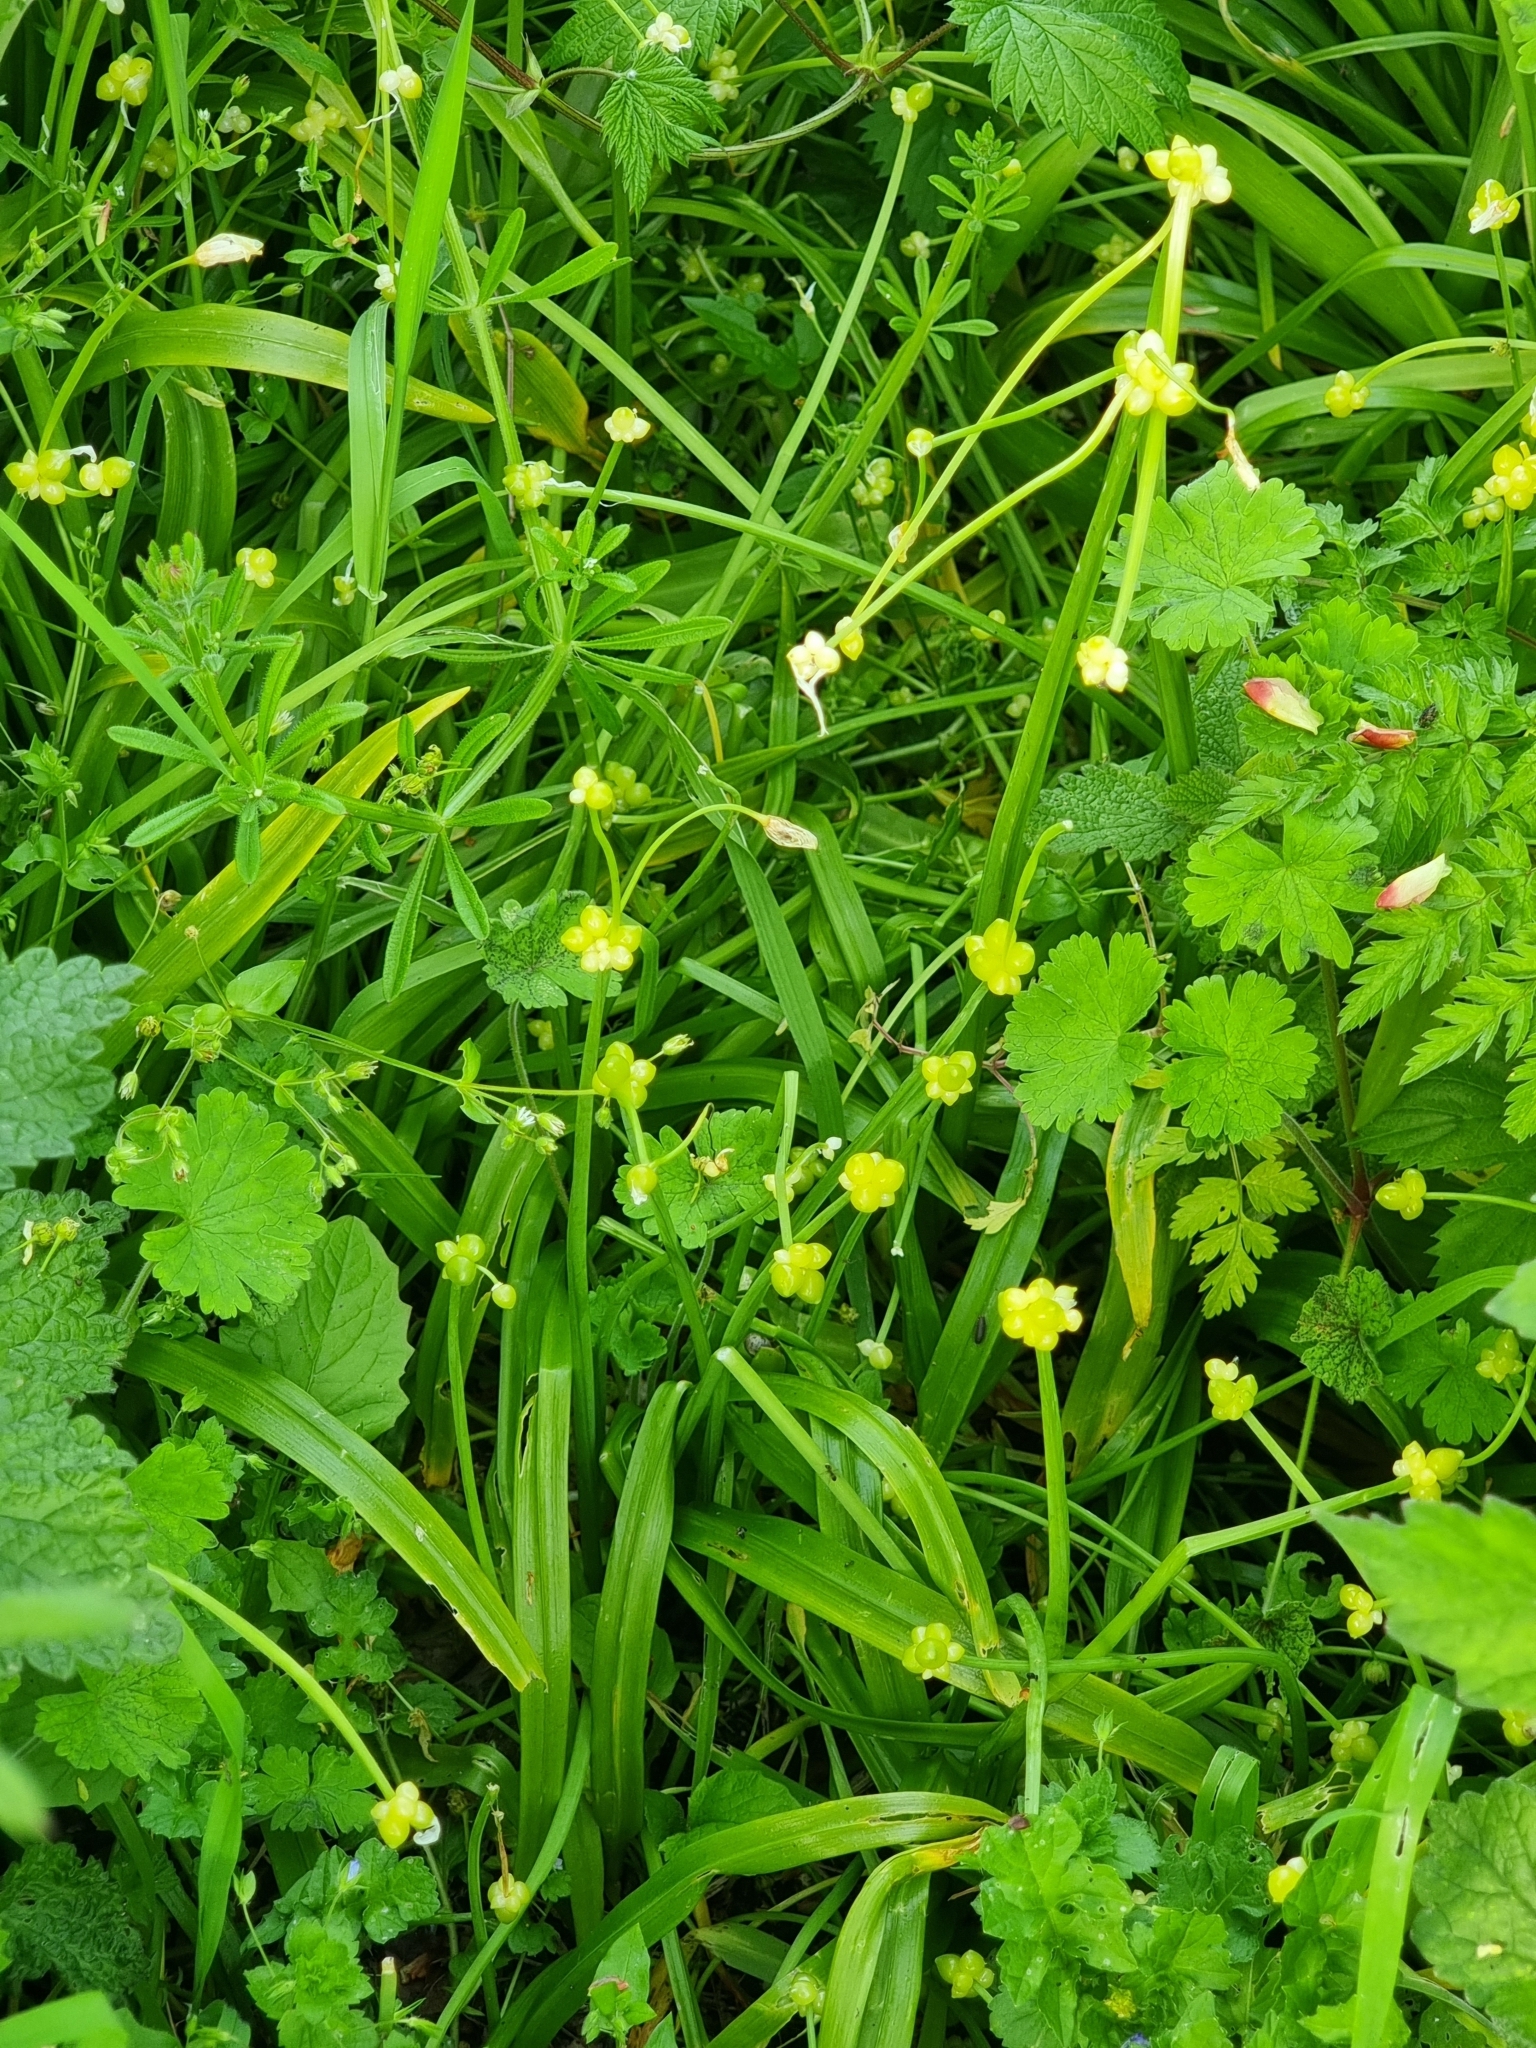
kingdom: Plantae
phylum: Tracheophyta
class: Liliopsida
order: Asparagales
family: Amaryllidaceae
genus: Allium
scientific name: Allium paradoxum
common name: Few-flowered garlic
